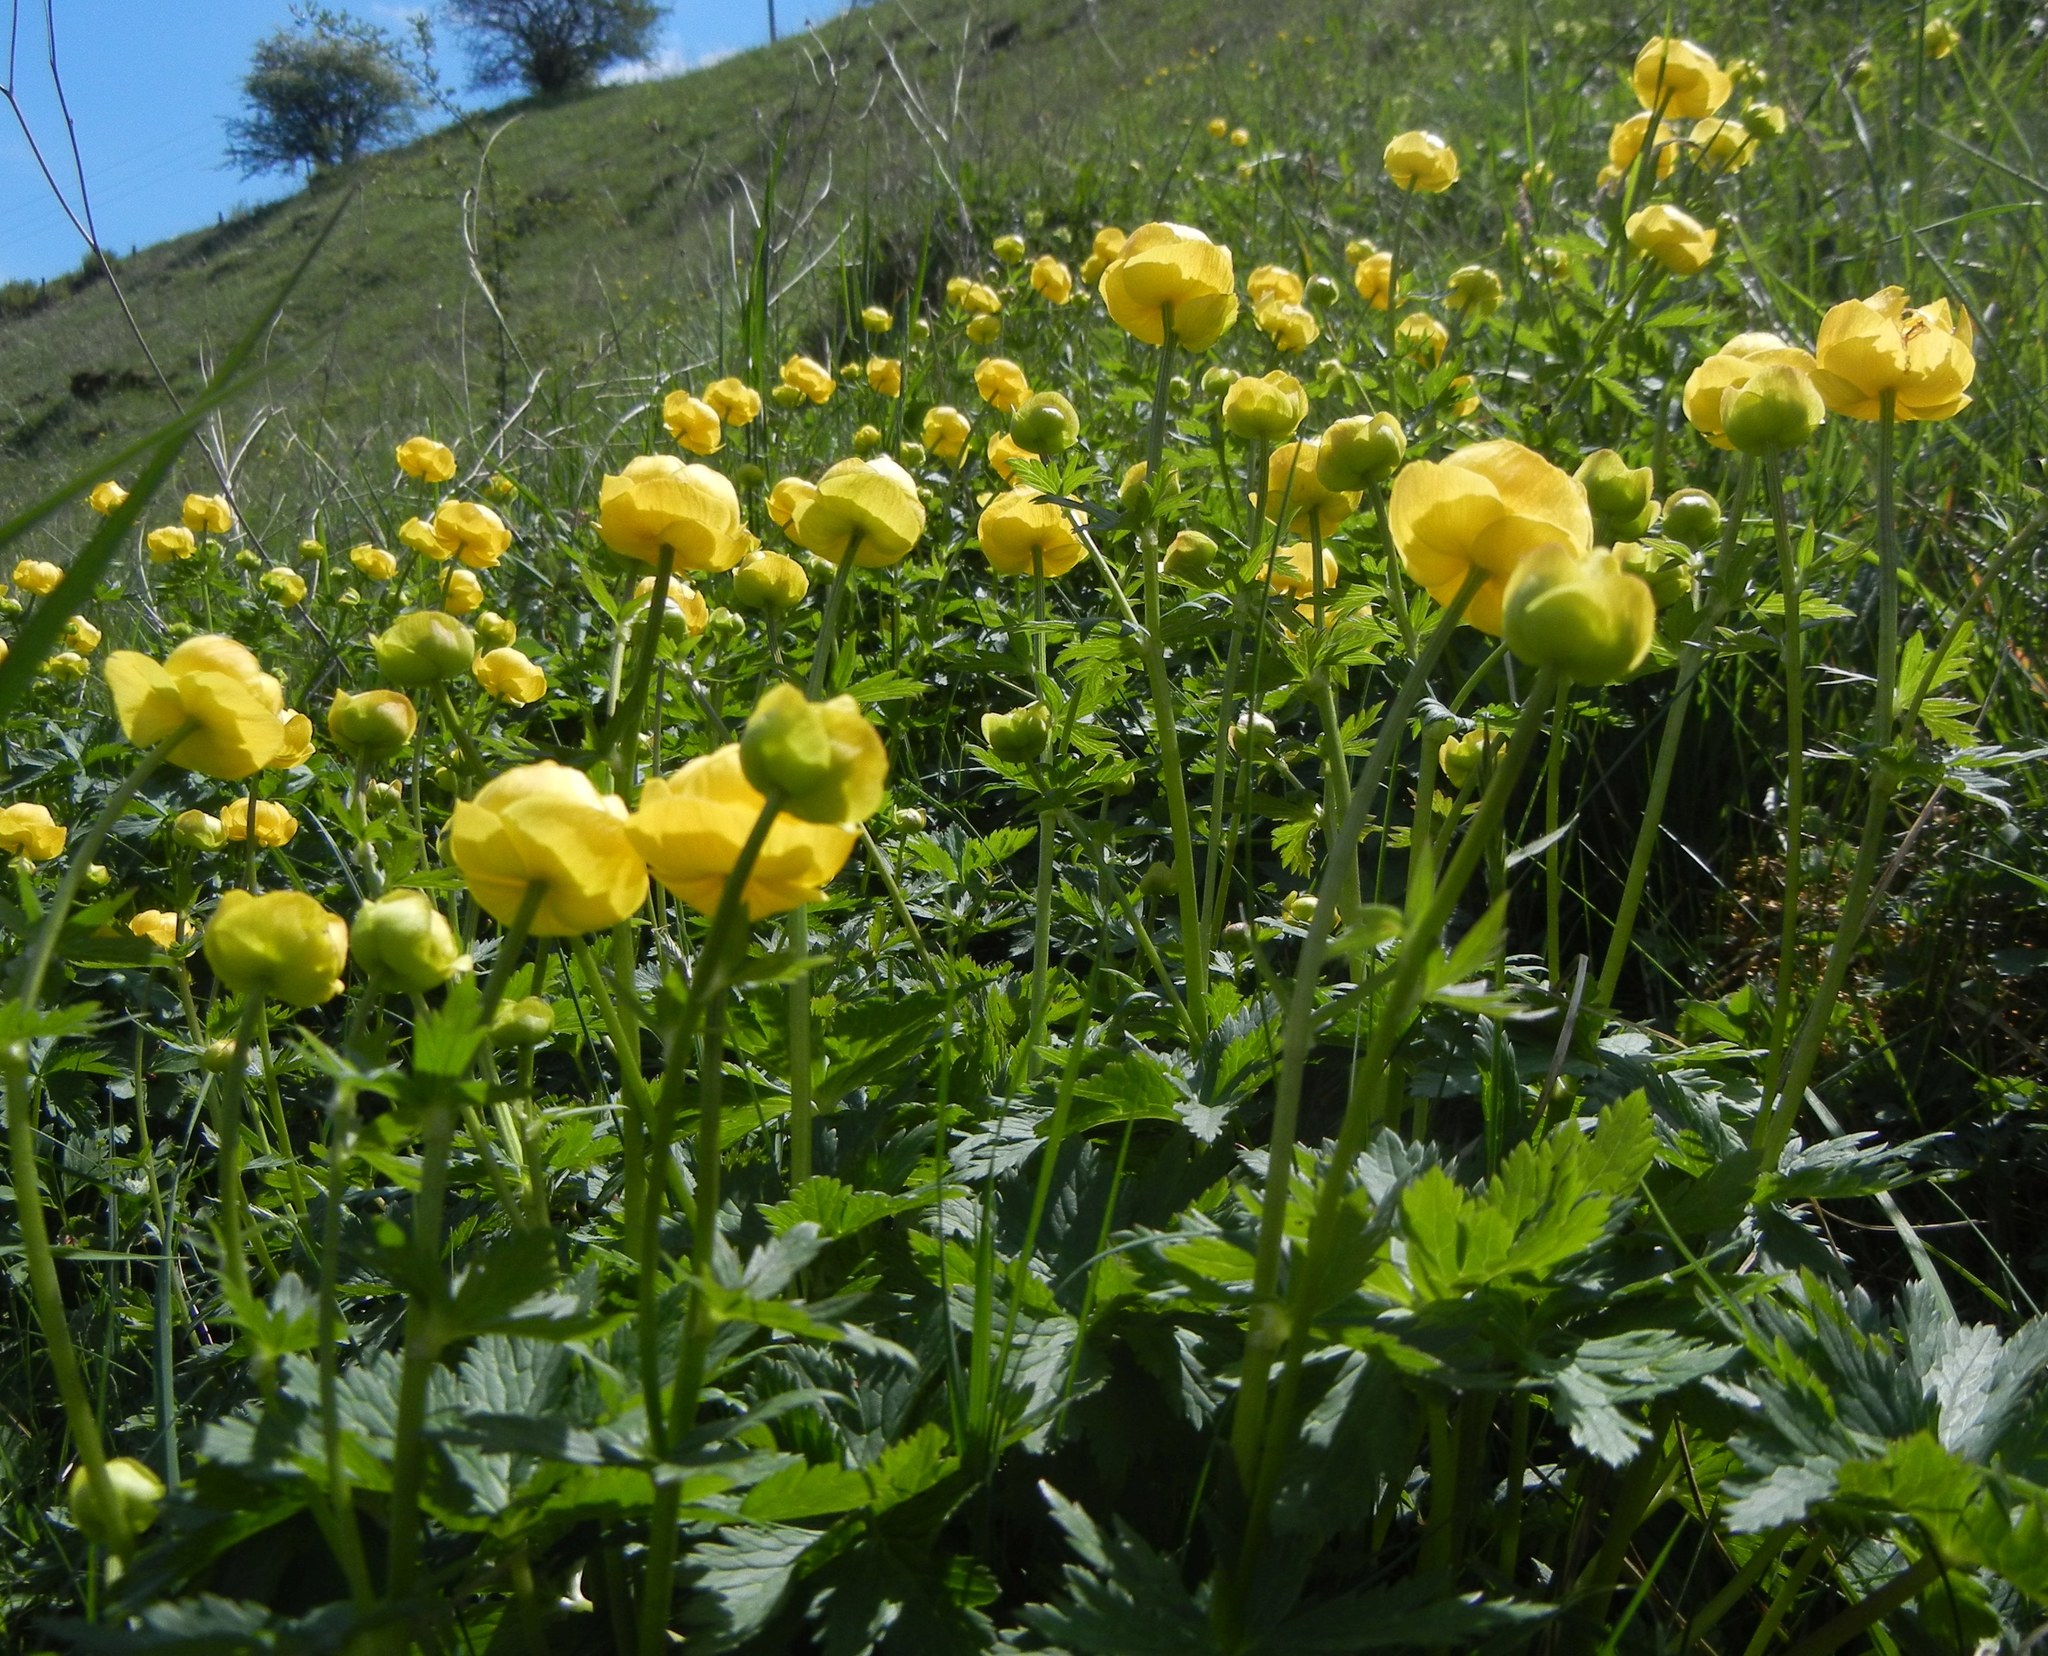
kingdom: Plantae
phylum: Tracheophyta
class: Magnoliopsida
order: Ranunculales
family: Ranunculaceae
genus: Trollius
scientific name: Trollius europaeus
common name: European globeflower
